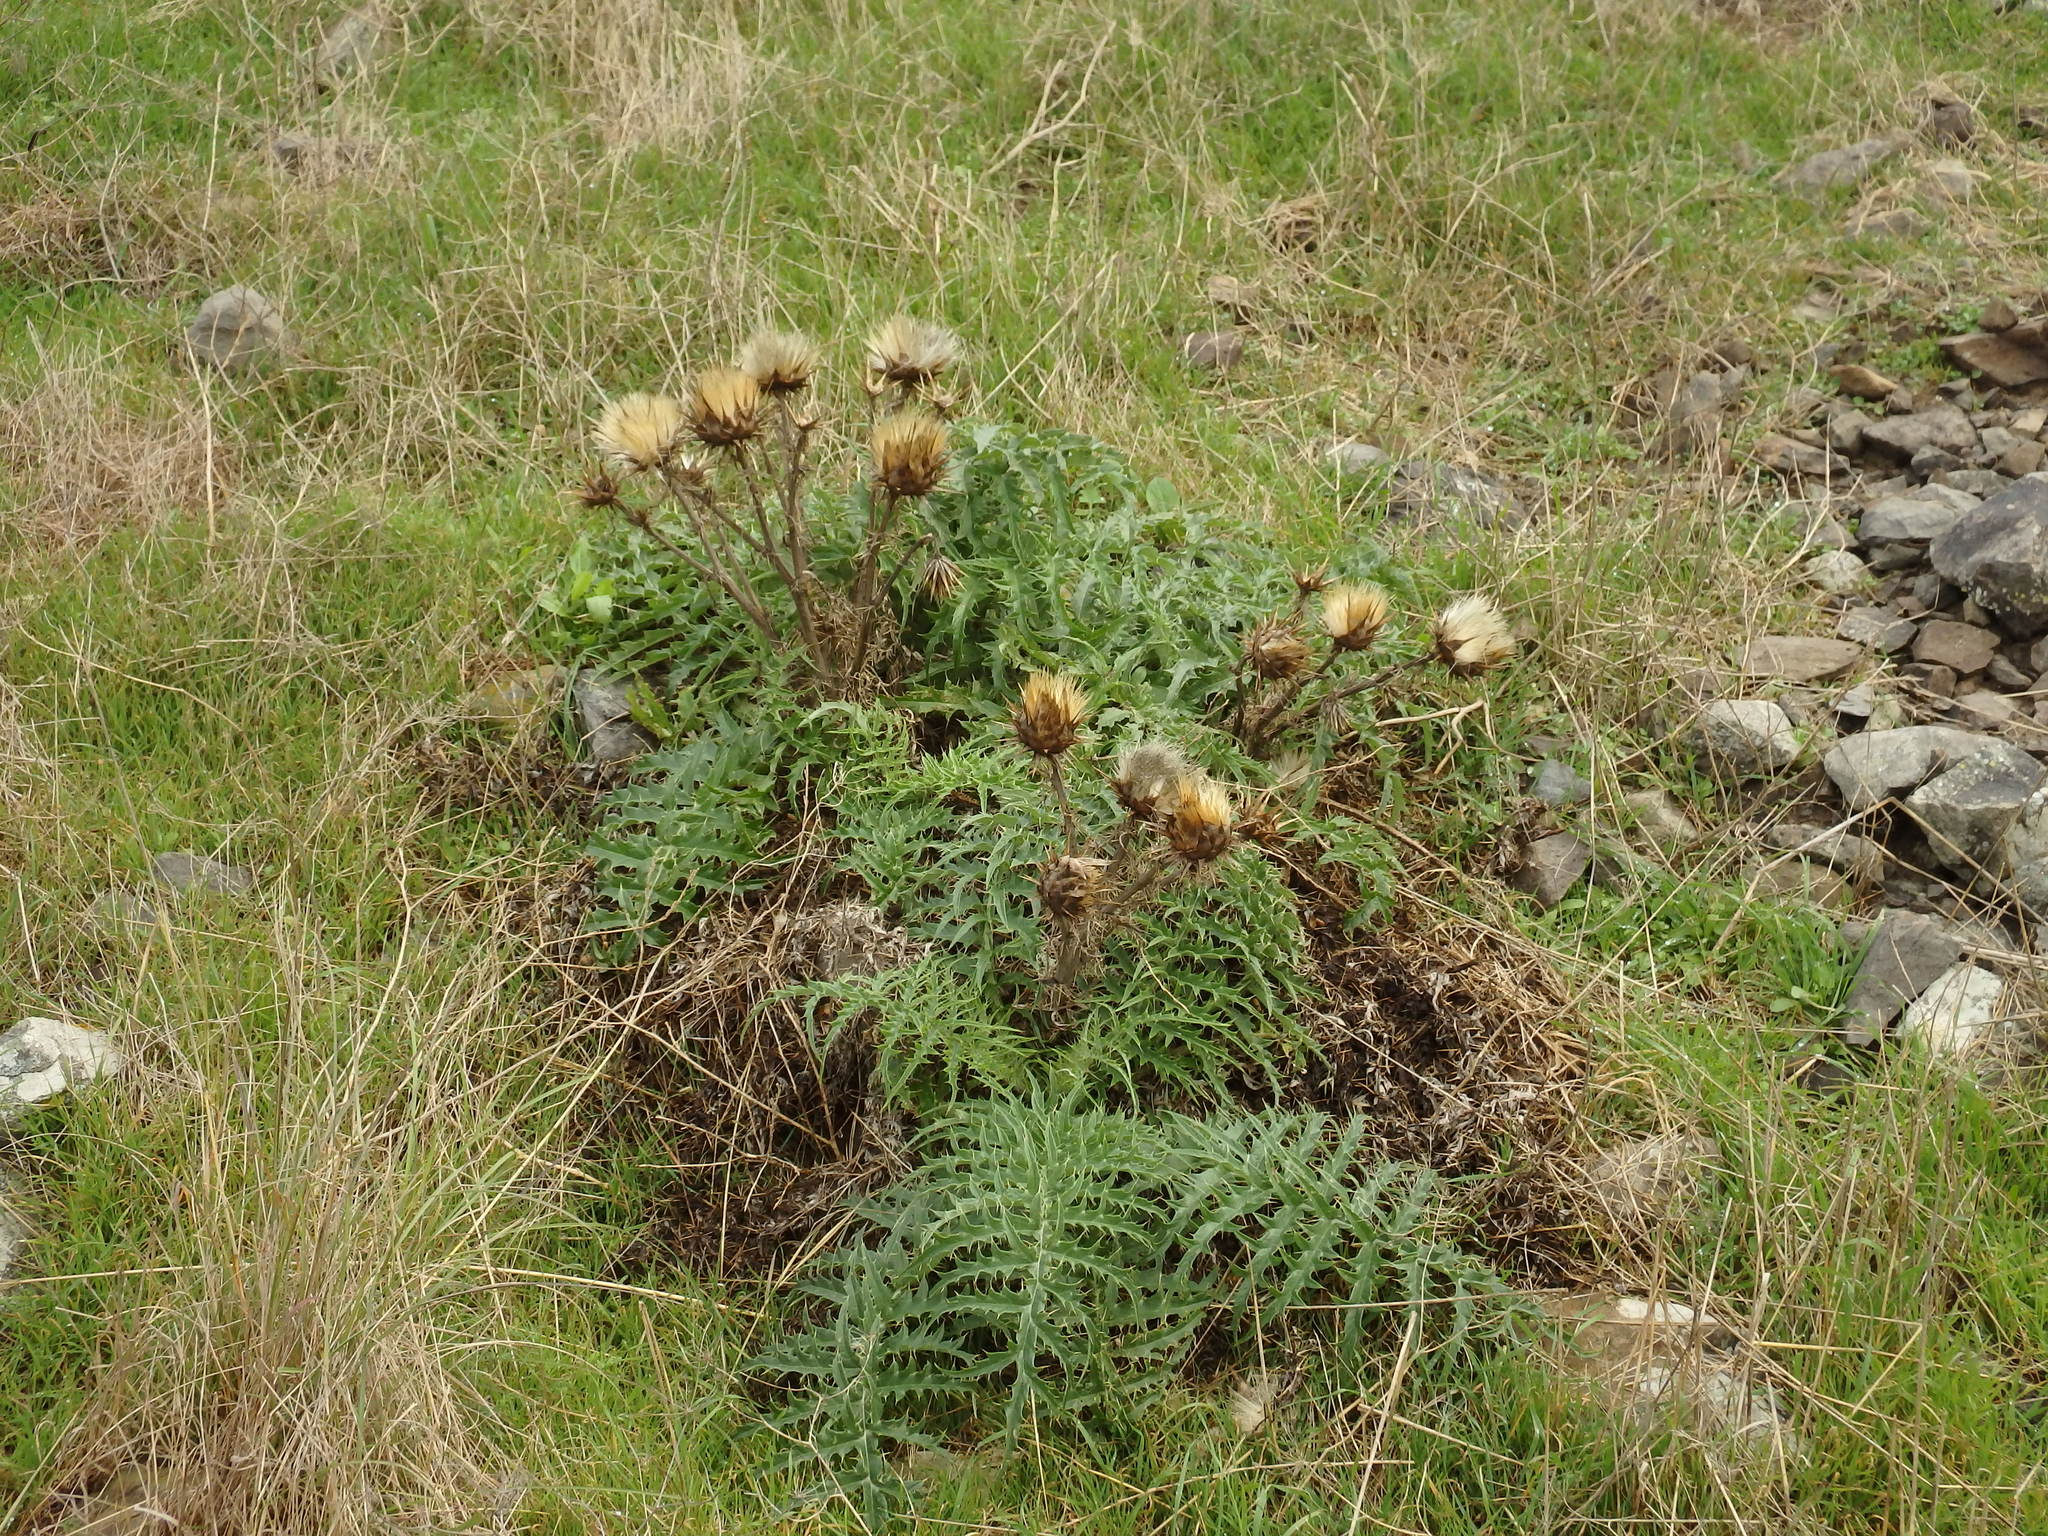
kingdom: Plantae
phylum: Tracheophyta
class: Magnoliopsida
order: Asterales
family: Asteraceae
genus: Cynara
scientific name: Cynara cardunculus
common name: Globe artichoke
